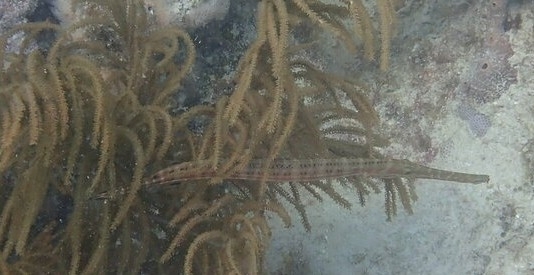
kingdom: Animalia
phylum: Chordata
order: Syngnathiformes
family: Aulostomidae
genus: Aulostomus
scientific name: Aulostomus maculatus
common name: West atlantic trumpetfish
